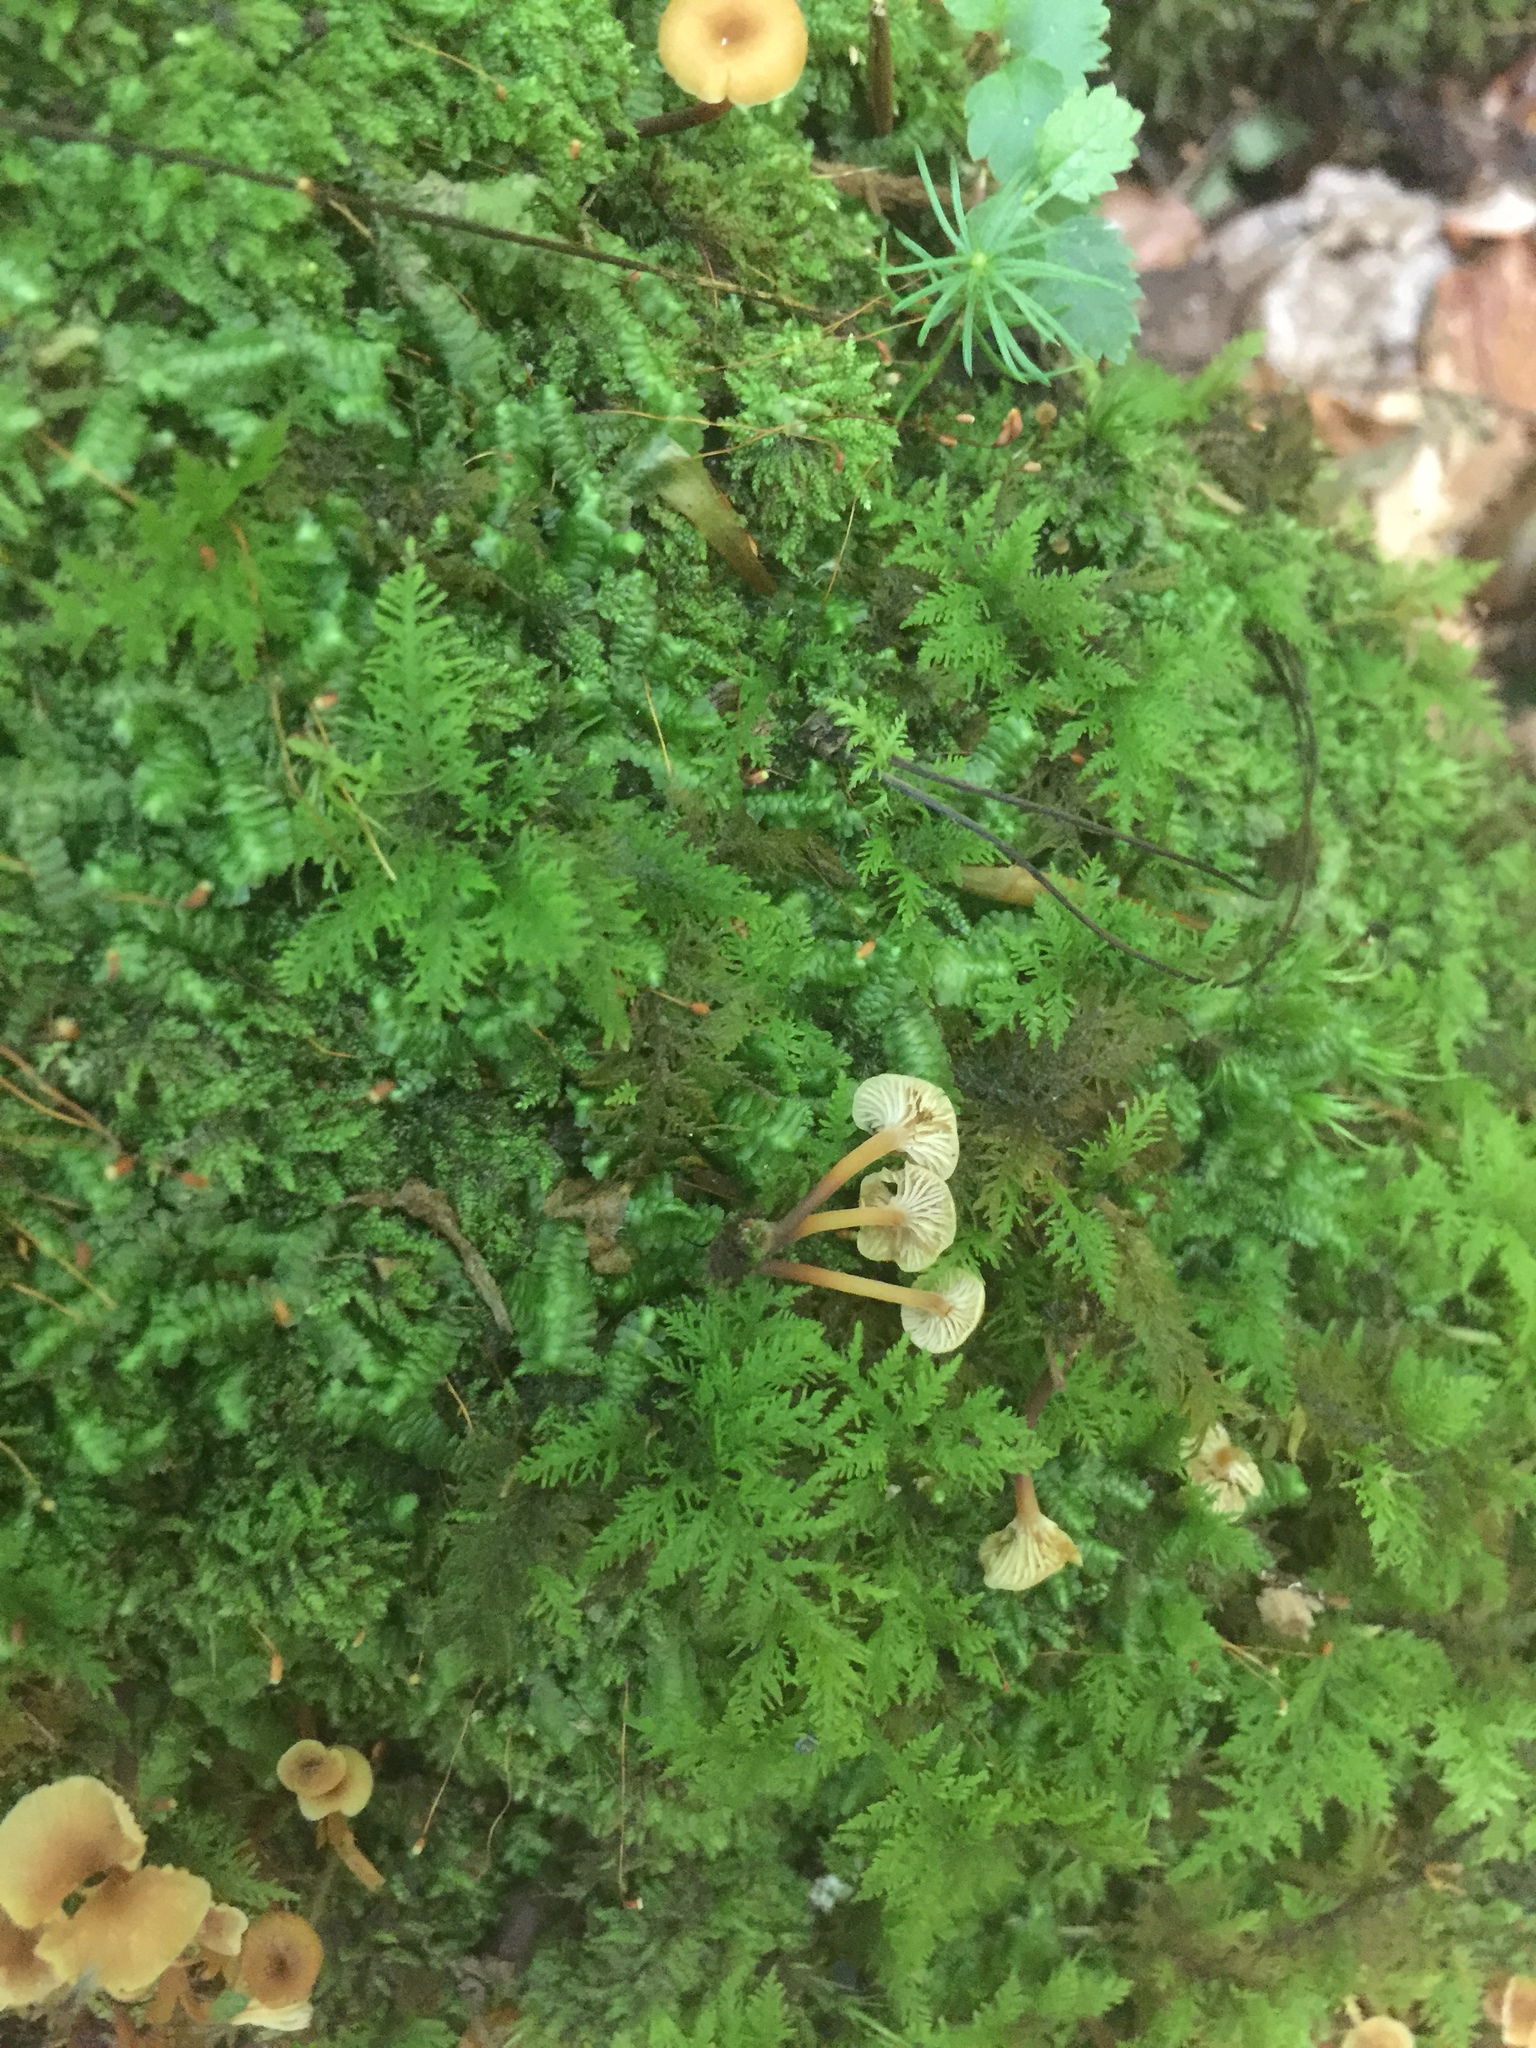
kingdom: Fungi
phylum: Basidiomycota
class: Agaricomycetes
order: Agaricales
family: Mycenaceae
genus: Xeromphalina
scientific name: Xeromphalina campanella
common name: Pinewood gingertail
